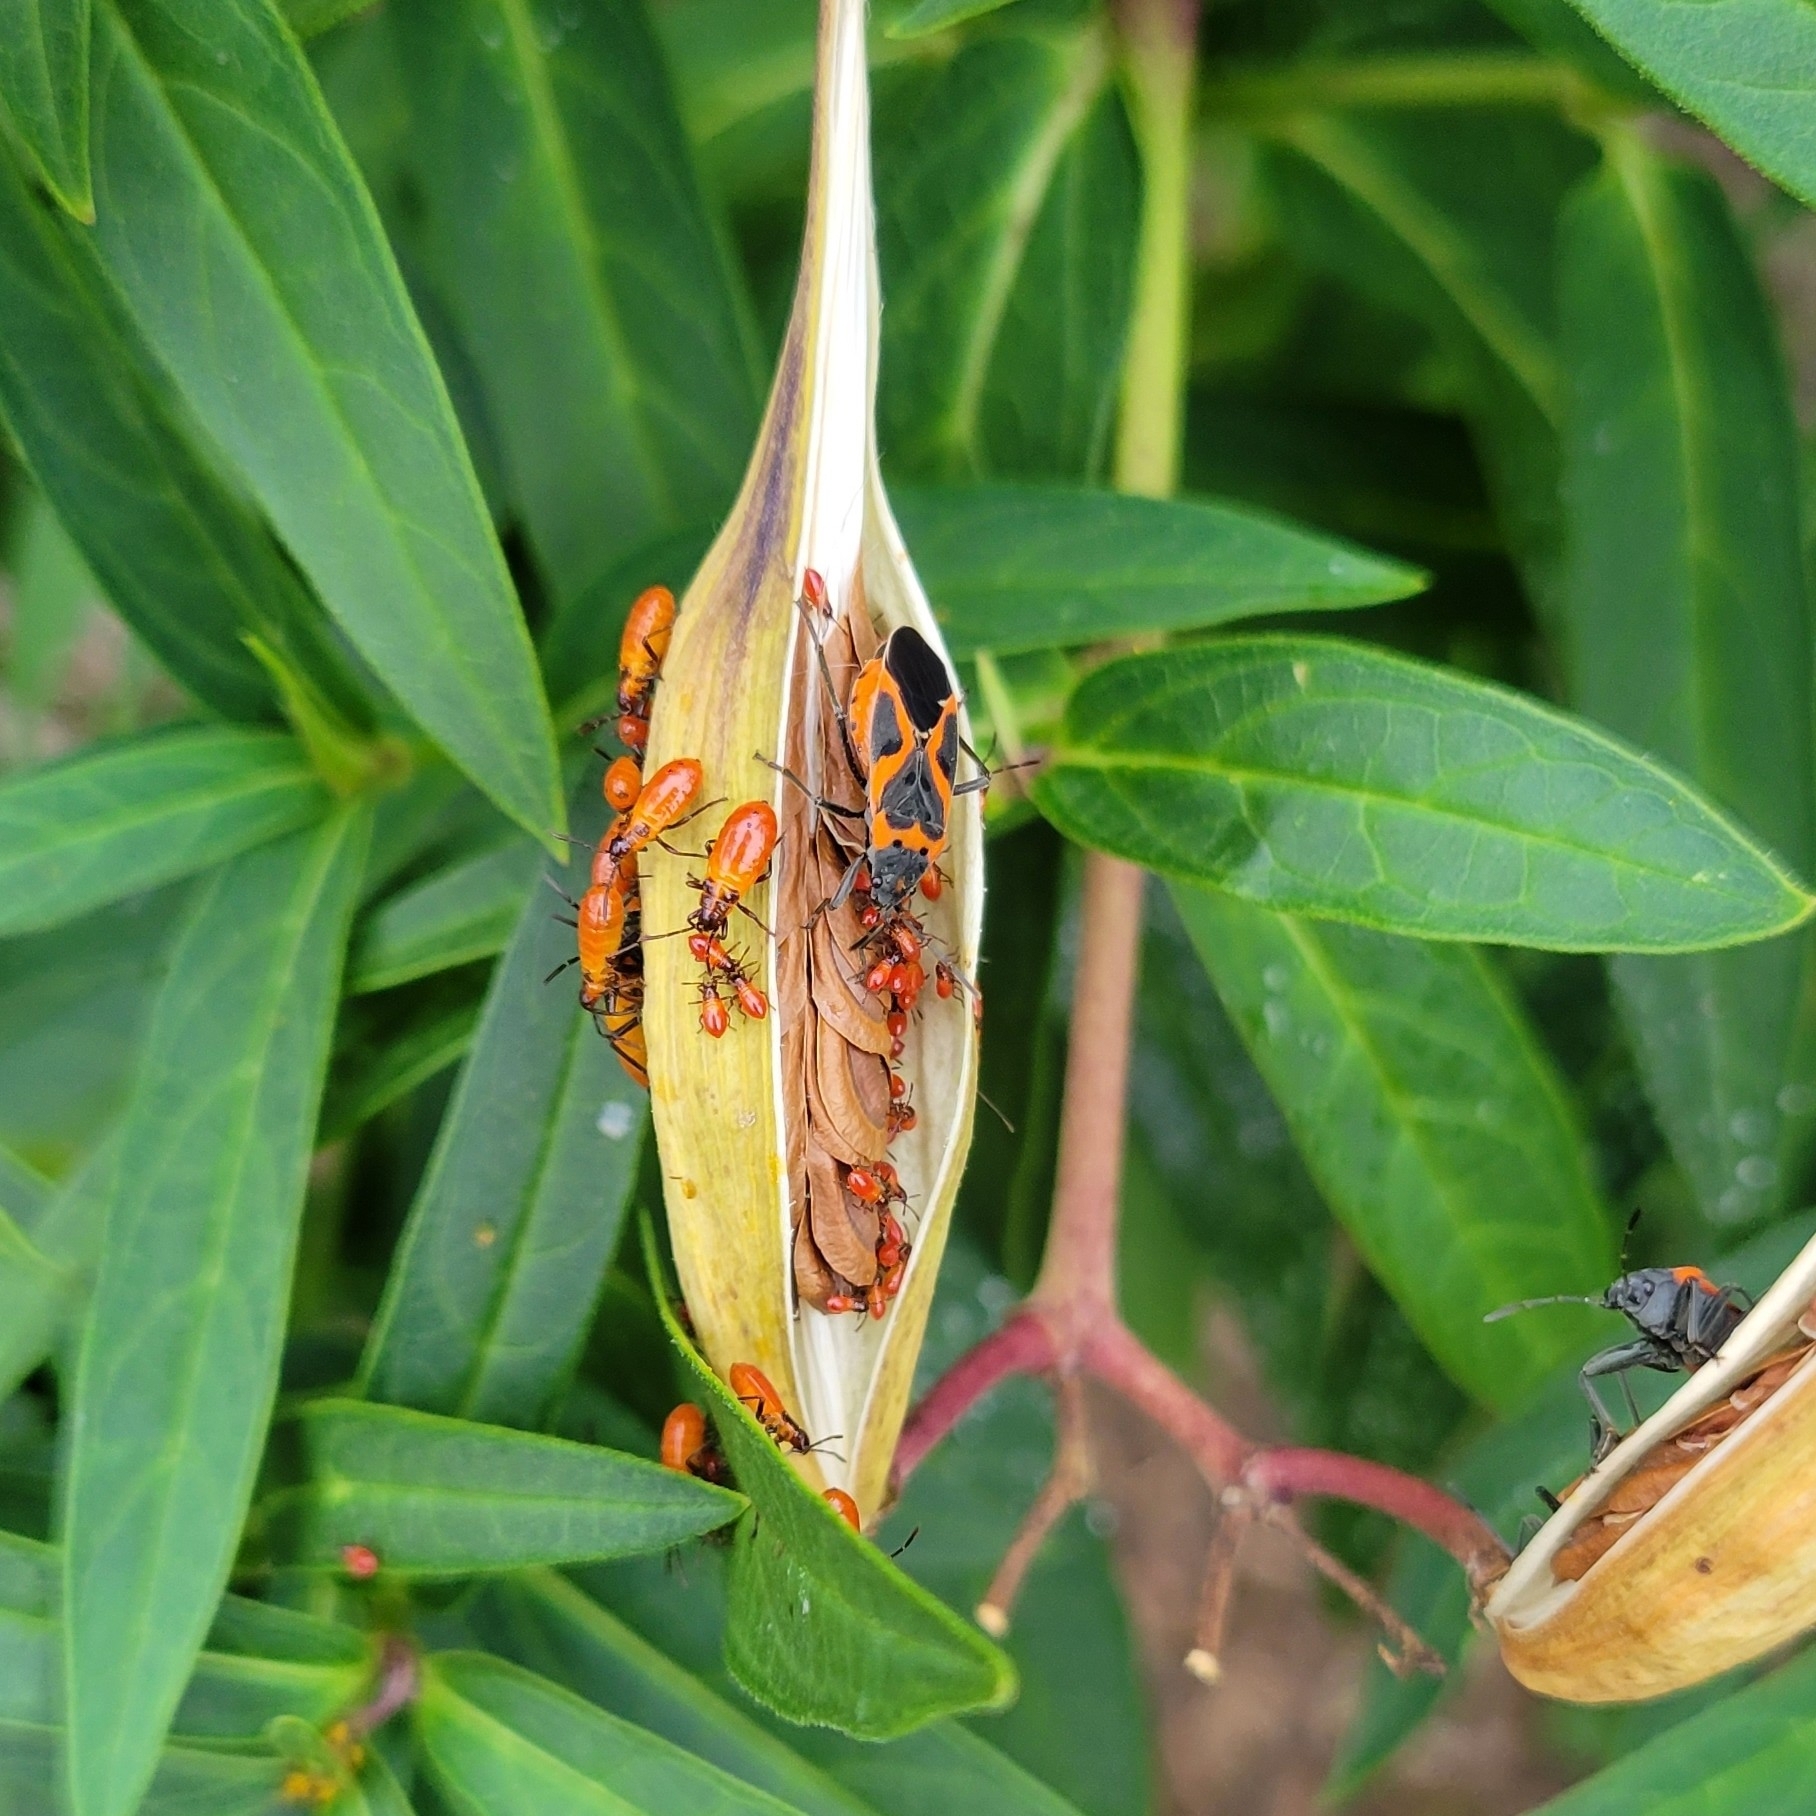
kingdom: Animalia
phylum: Arthropoda
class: Insecta
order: Hemiptera
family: Lygaeidae
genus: Lygaeus
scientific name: Lygaeus kalmii
